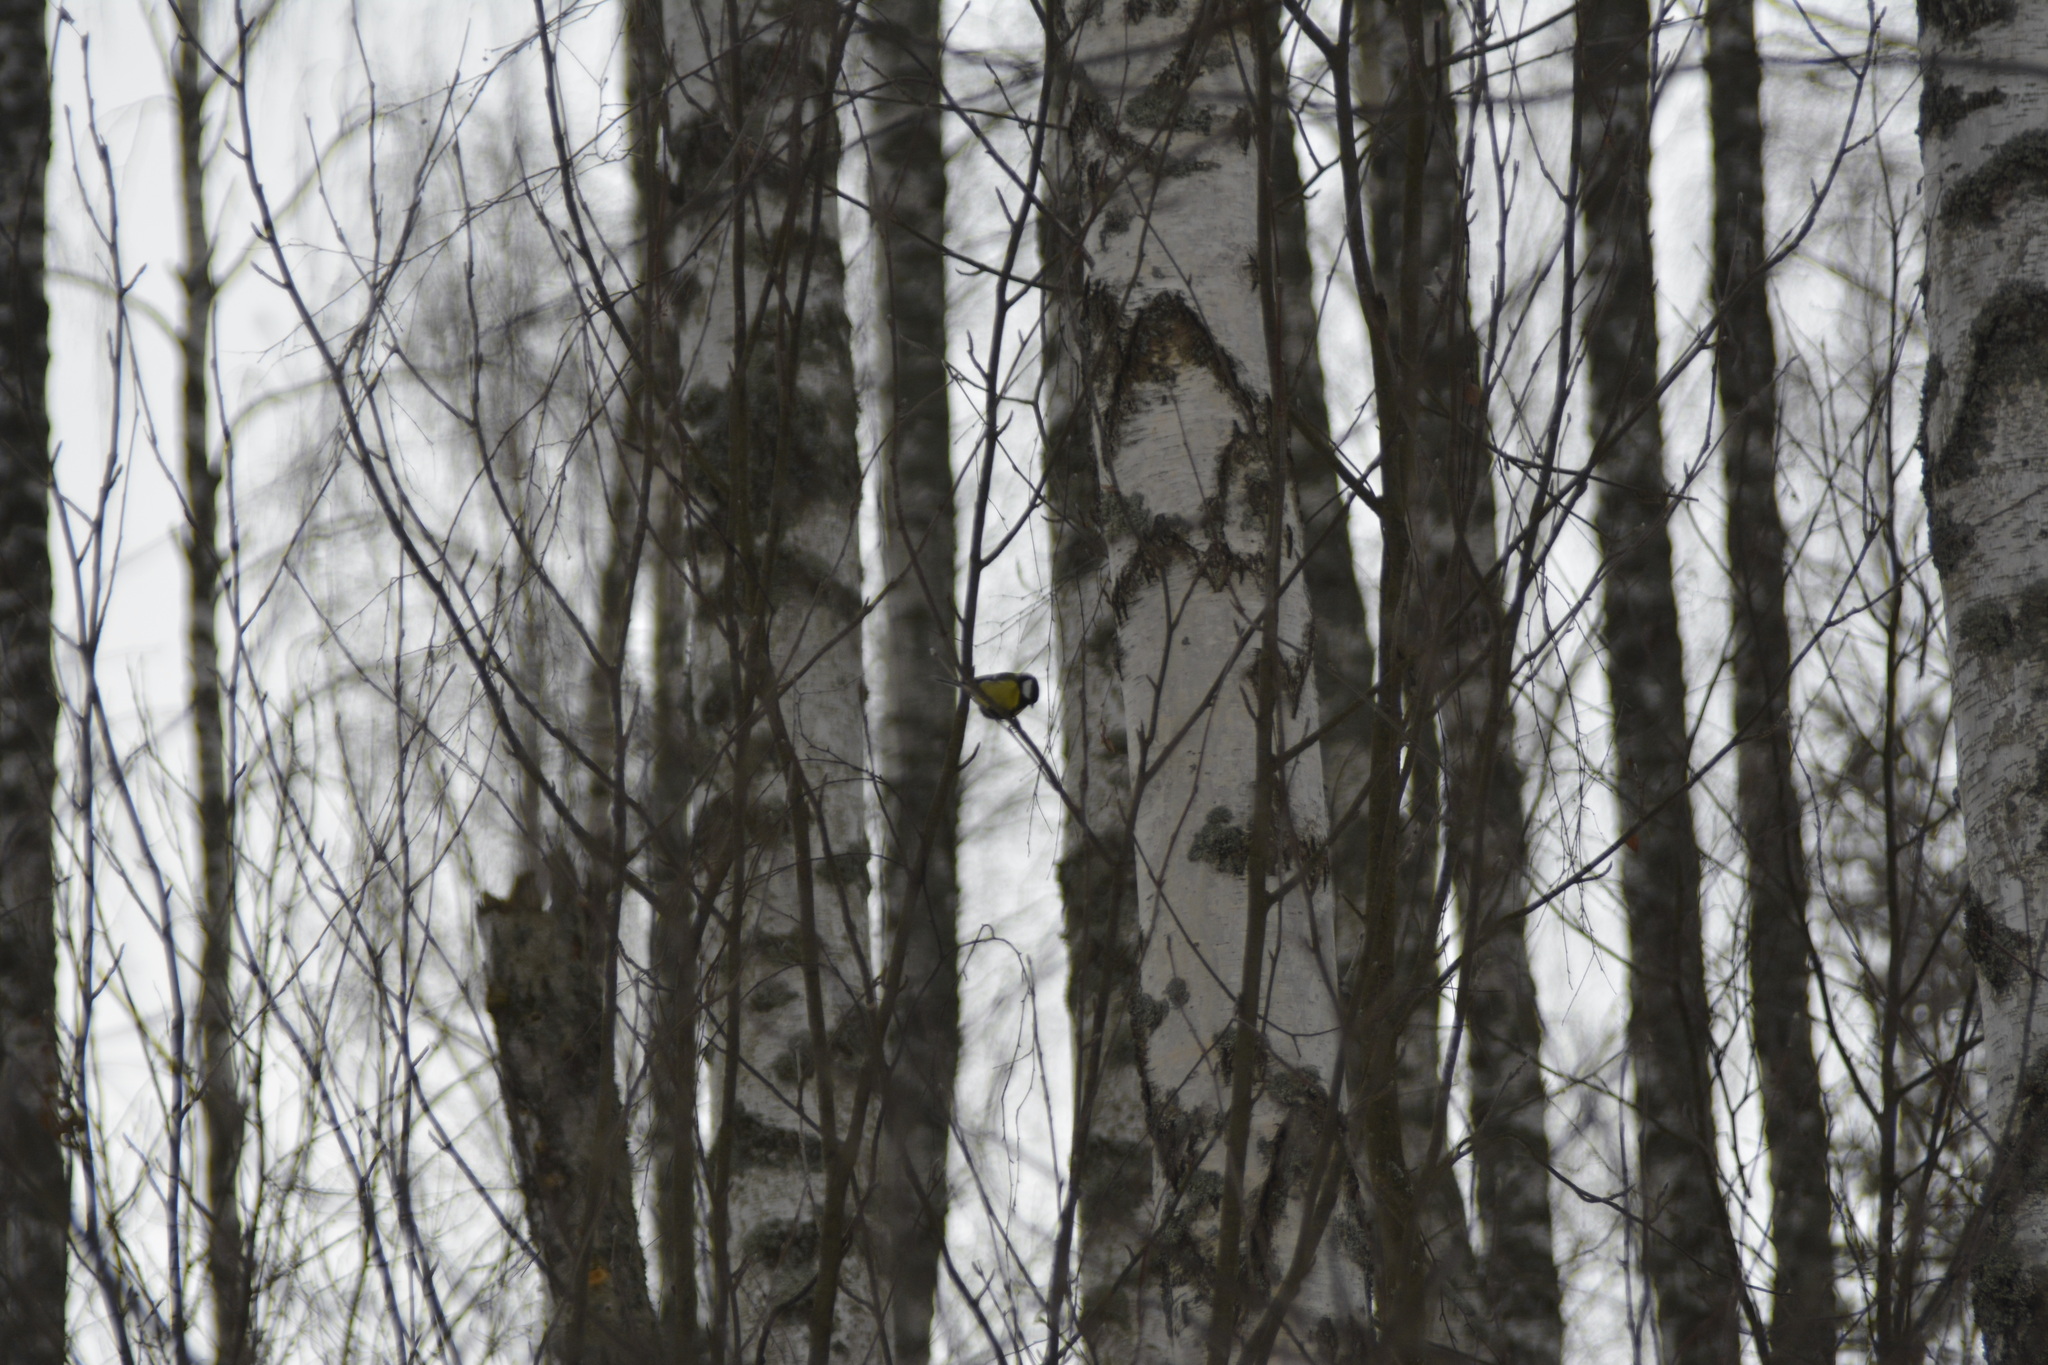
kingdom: Animalia
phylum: Chordata
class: Aves
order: Passeriformes
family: Paridae
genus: Parus
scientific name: Parus major
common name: Great tit
